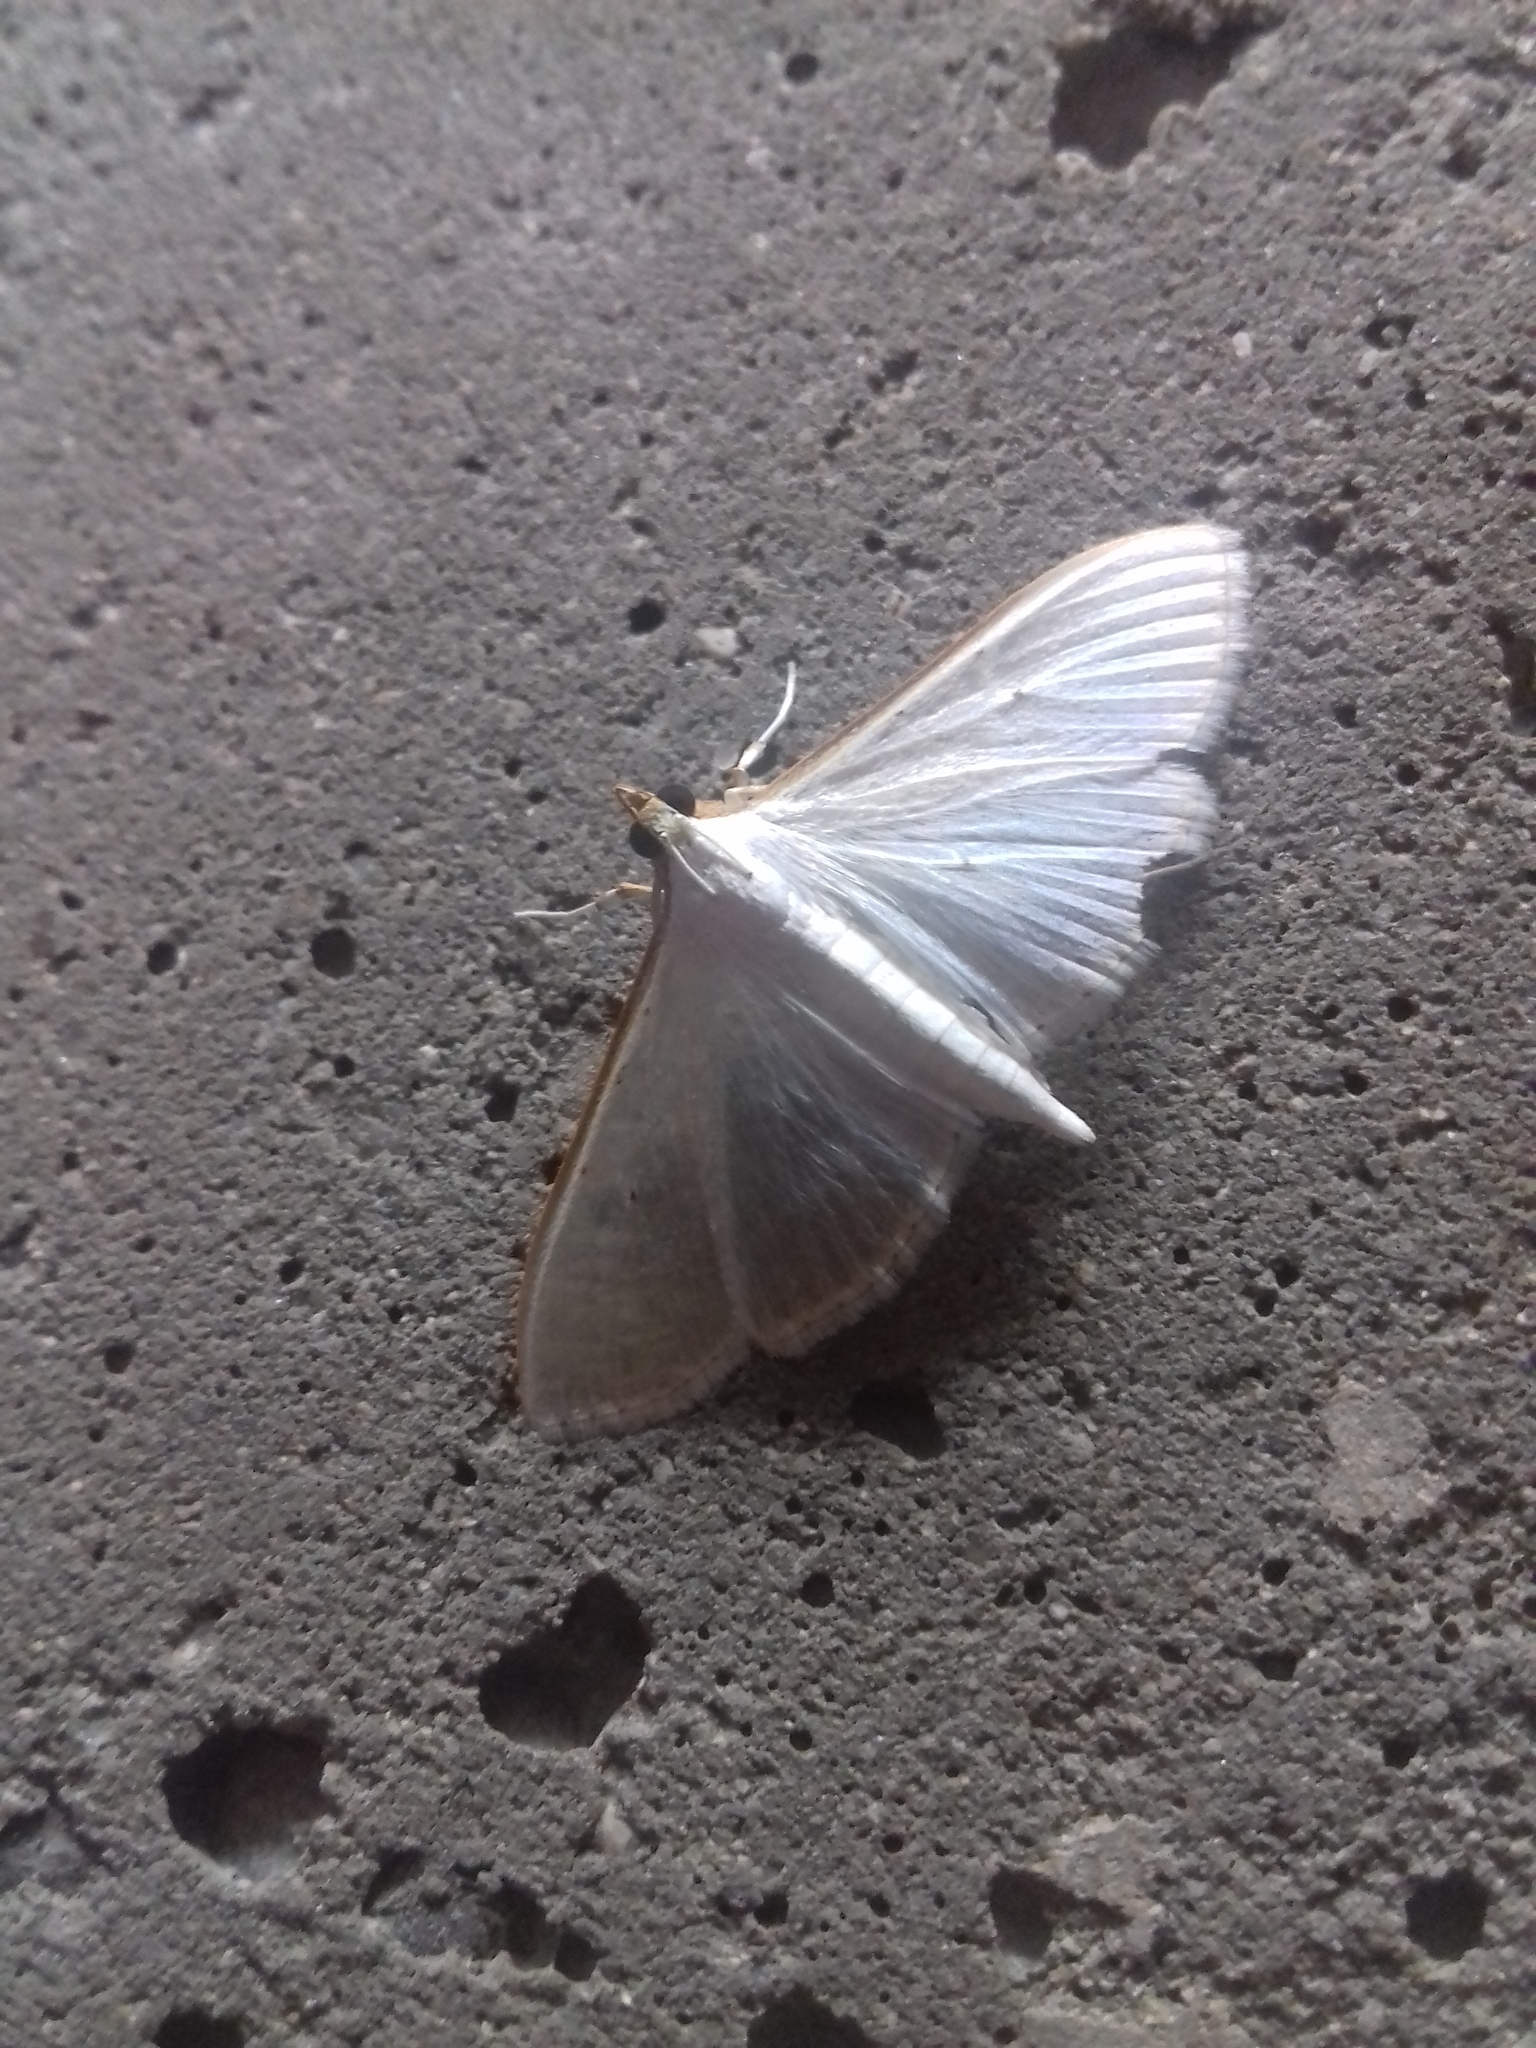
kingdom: Animalia
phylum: Arthropoda
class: Insecta
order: Lepidoptera
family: Crambidae
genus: Palpita
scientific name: Palpita vitrealis
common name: Olive-tree pearl
